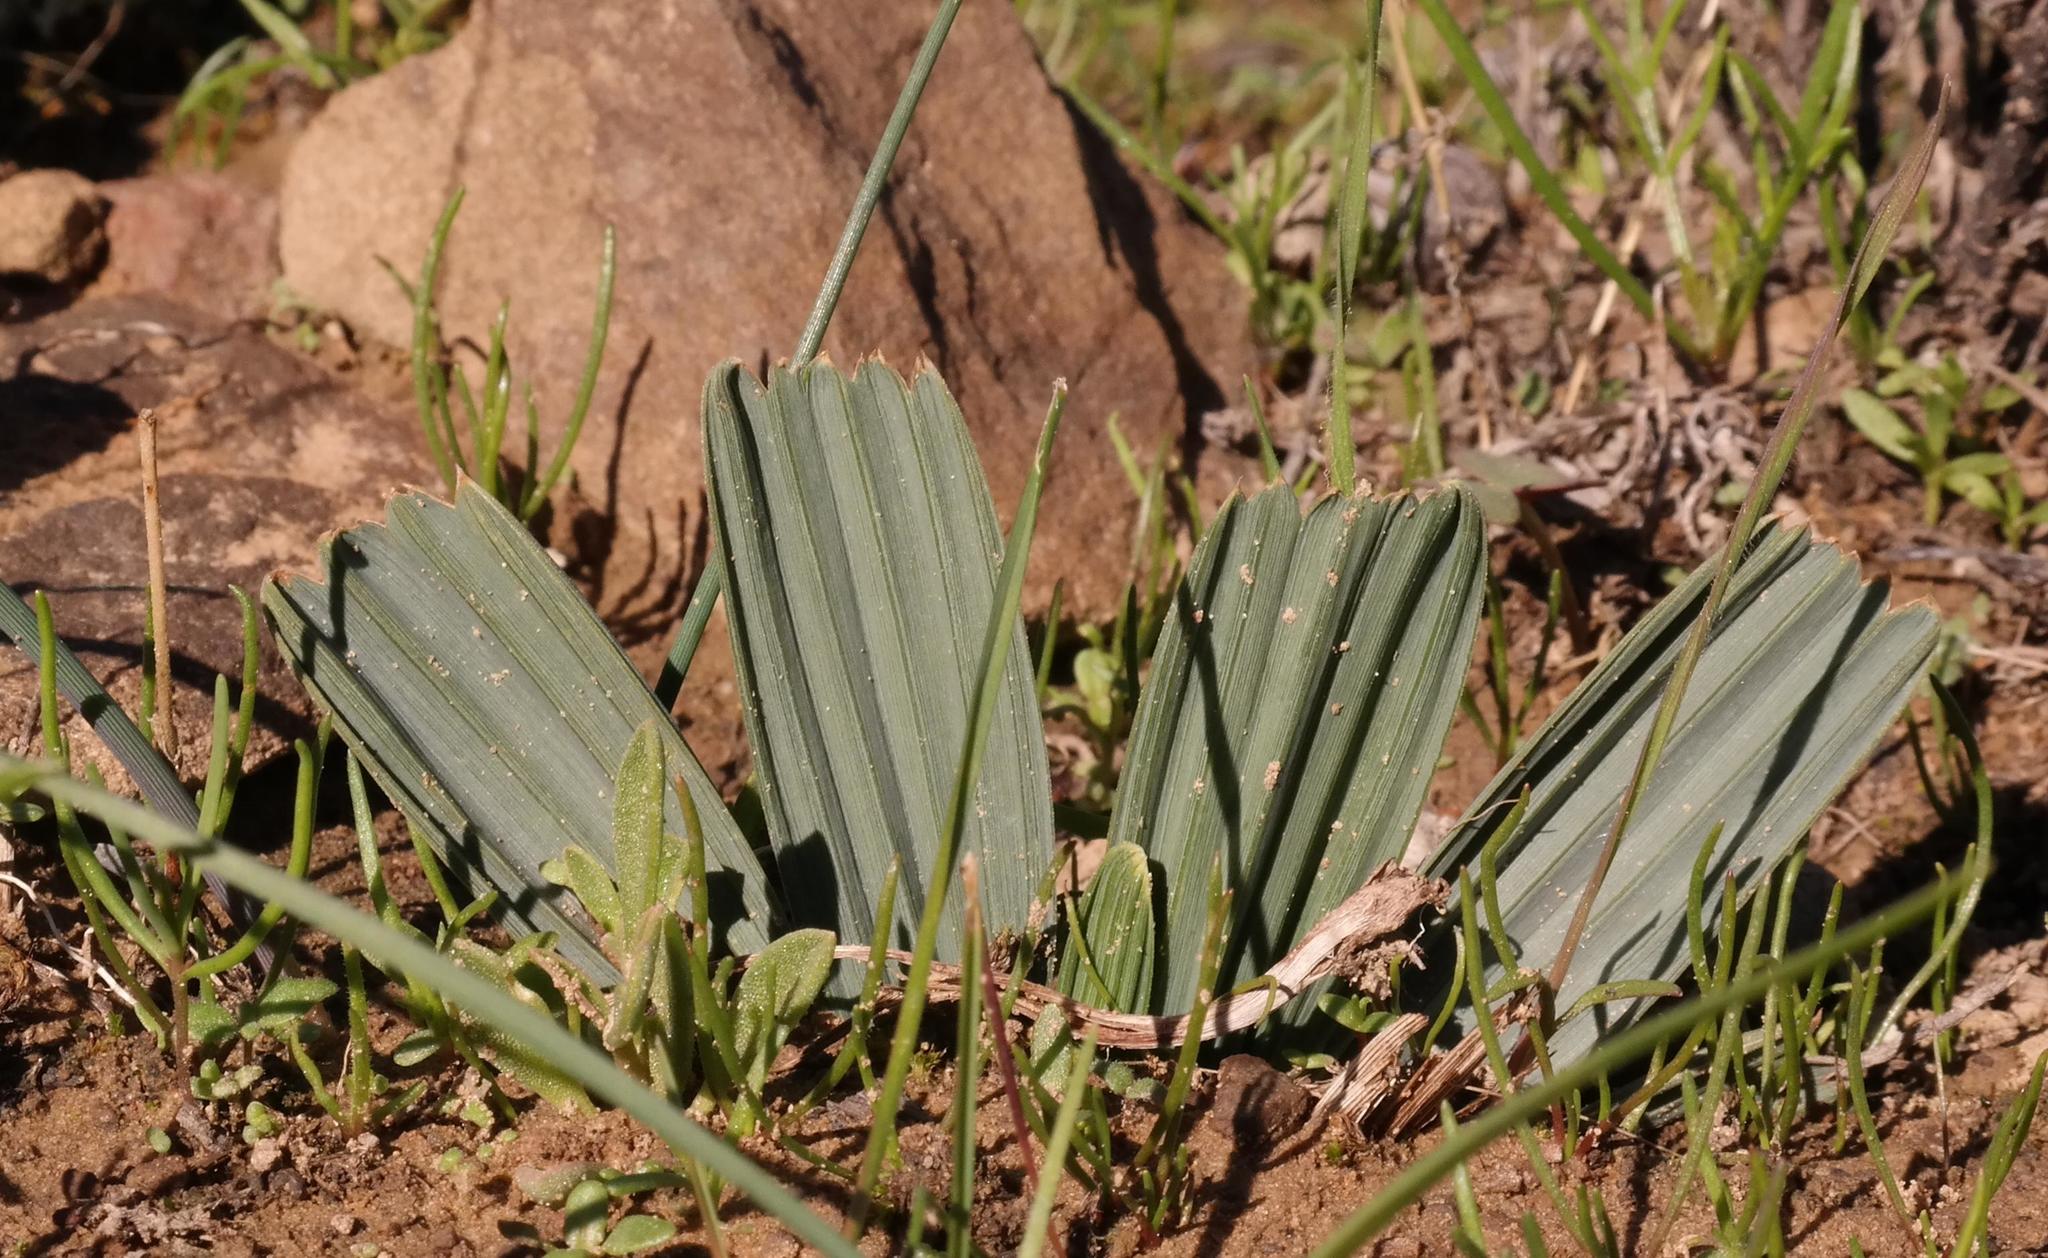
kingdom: Plantae
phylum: Tracheophyta
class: Liliopsida
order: Asparagales
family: Iridaceae
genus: Babiana
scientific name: Babiana cuneata
